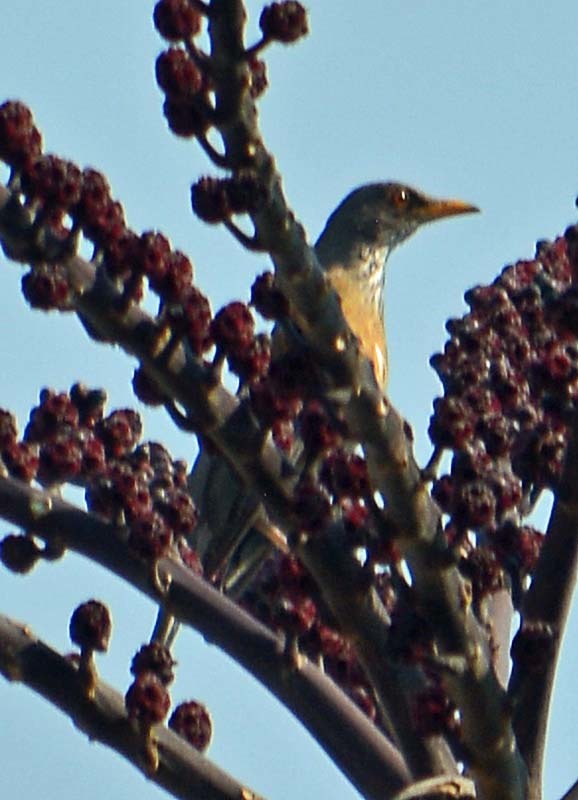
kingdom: Animalia
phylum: Chordata
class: Aves
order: Passeriformes
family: Turdidae
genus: Turdus
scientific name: Turdus rufopalliatus
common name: Rufous-backed robin
